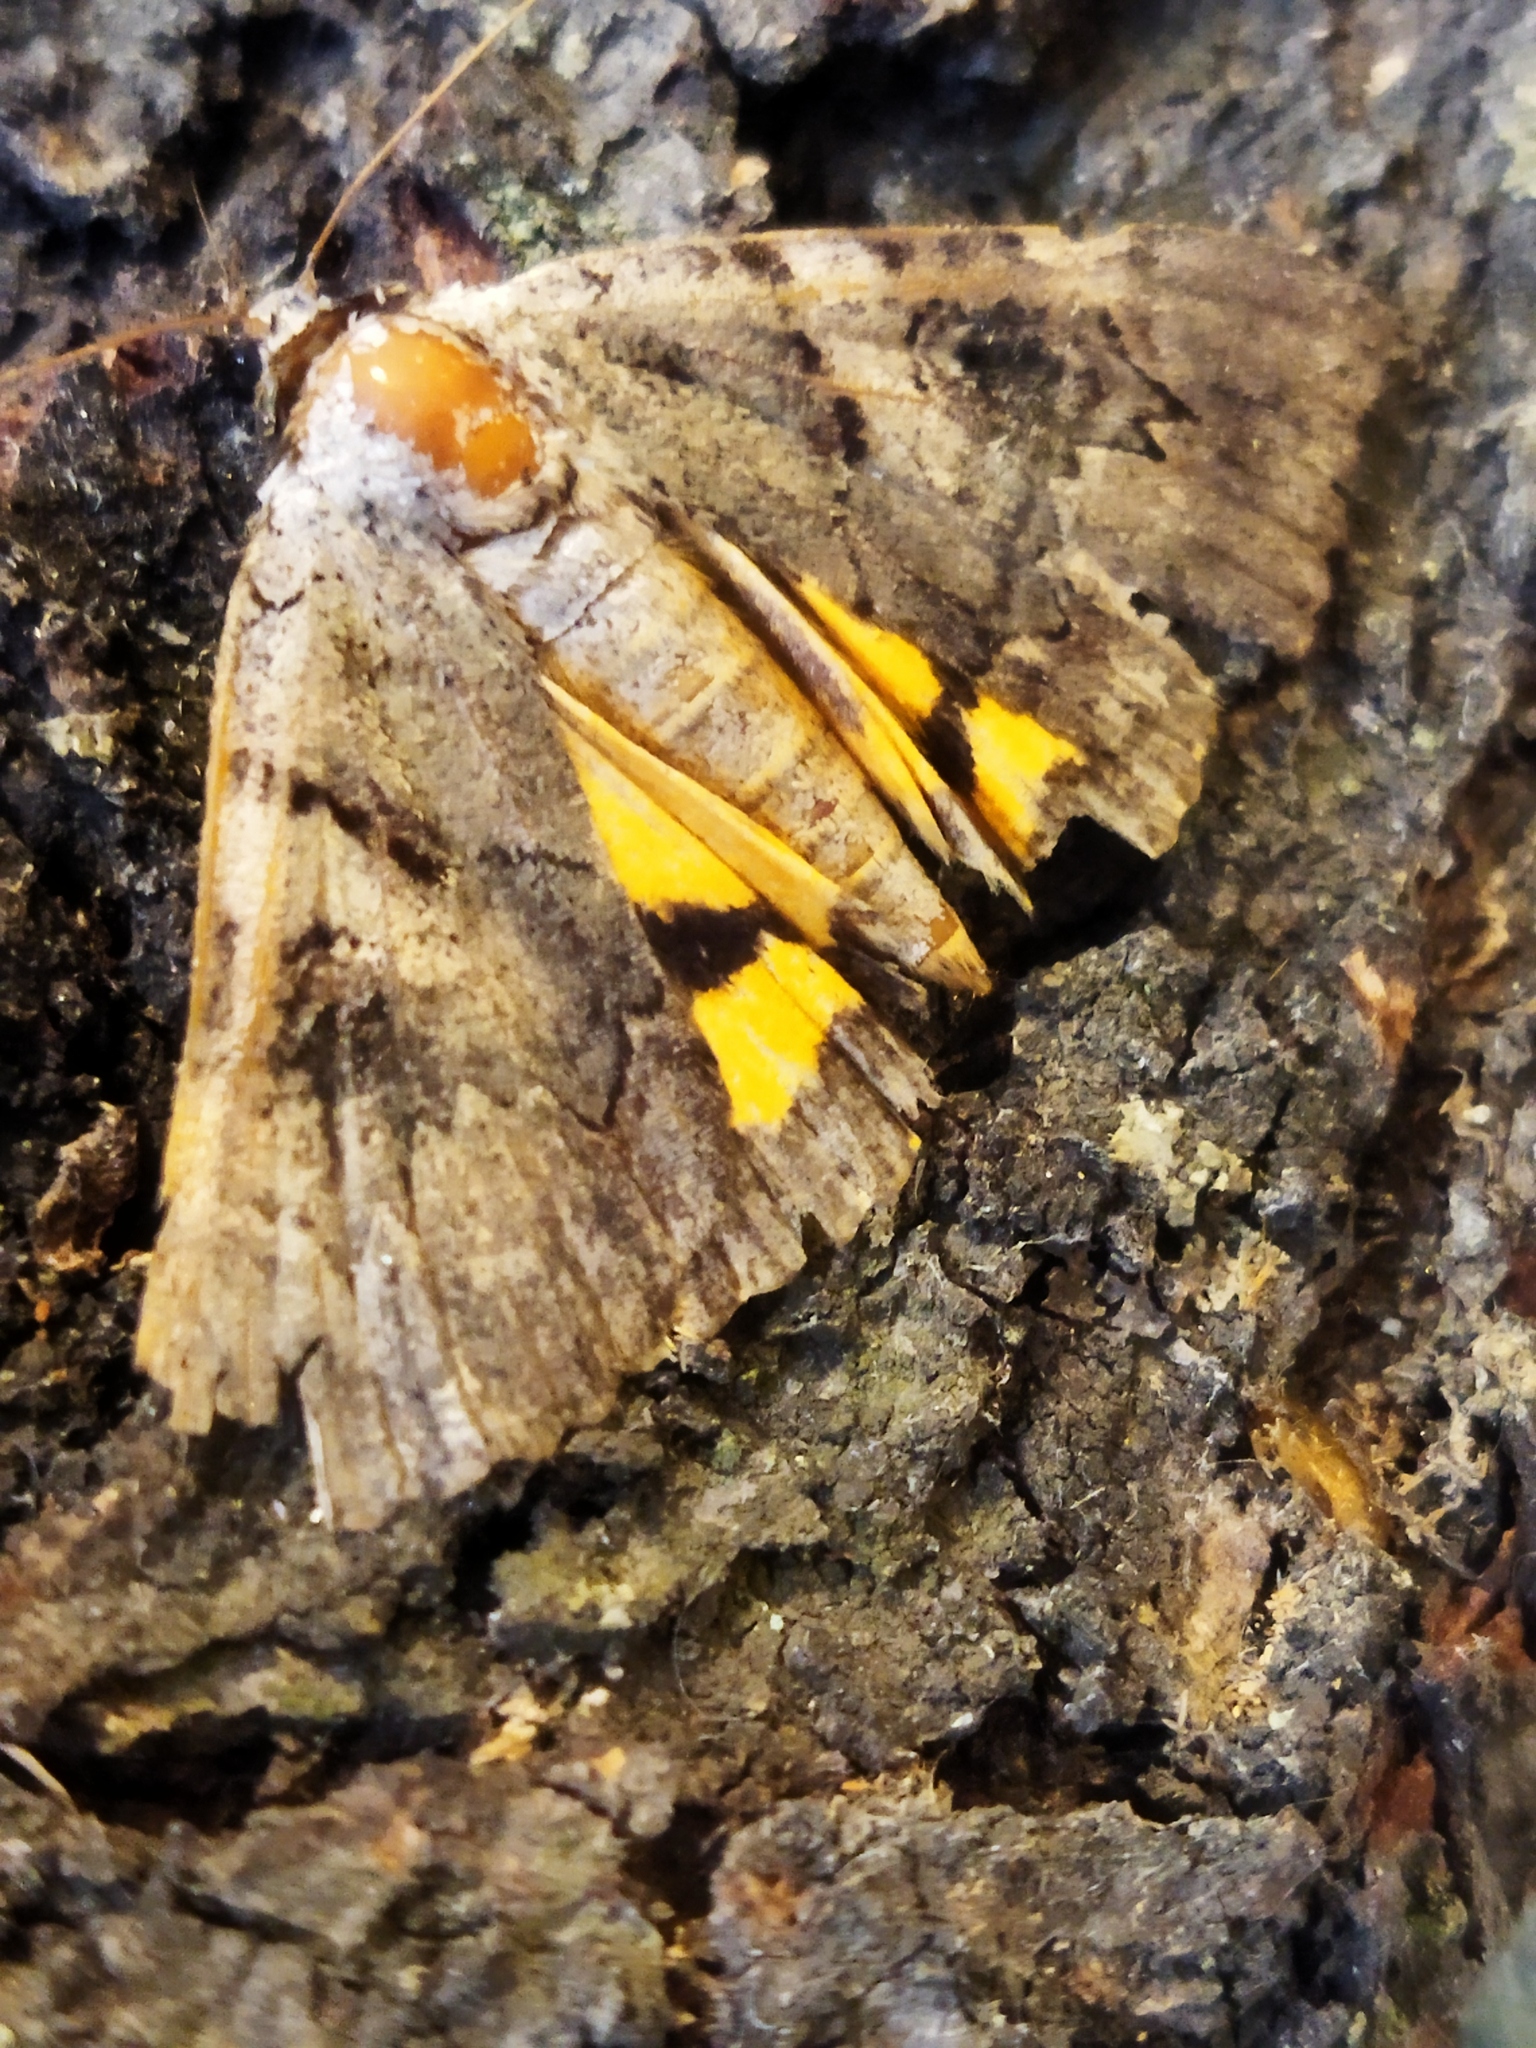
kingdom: Animalia
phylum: Arthropoda
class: Insecta
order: Lepidoptera
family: Erebidae
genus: Catocala
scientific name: Catocala hymenaea
